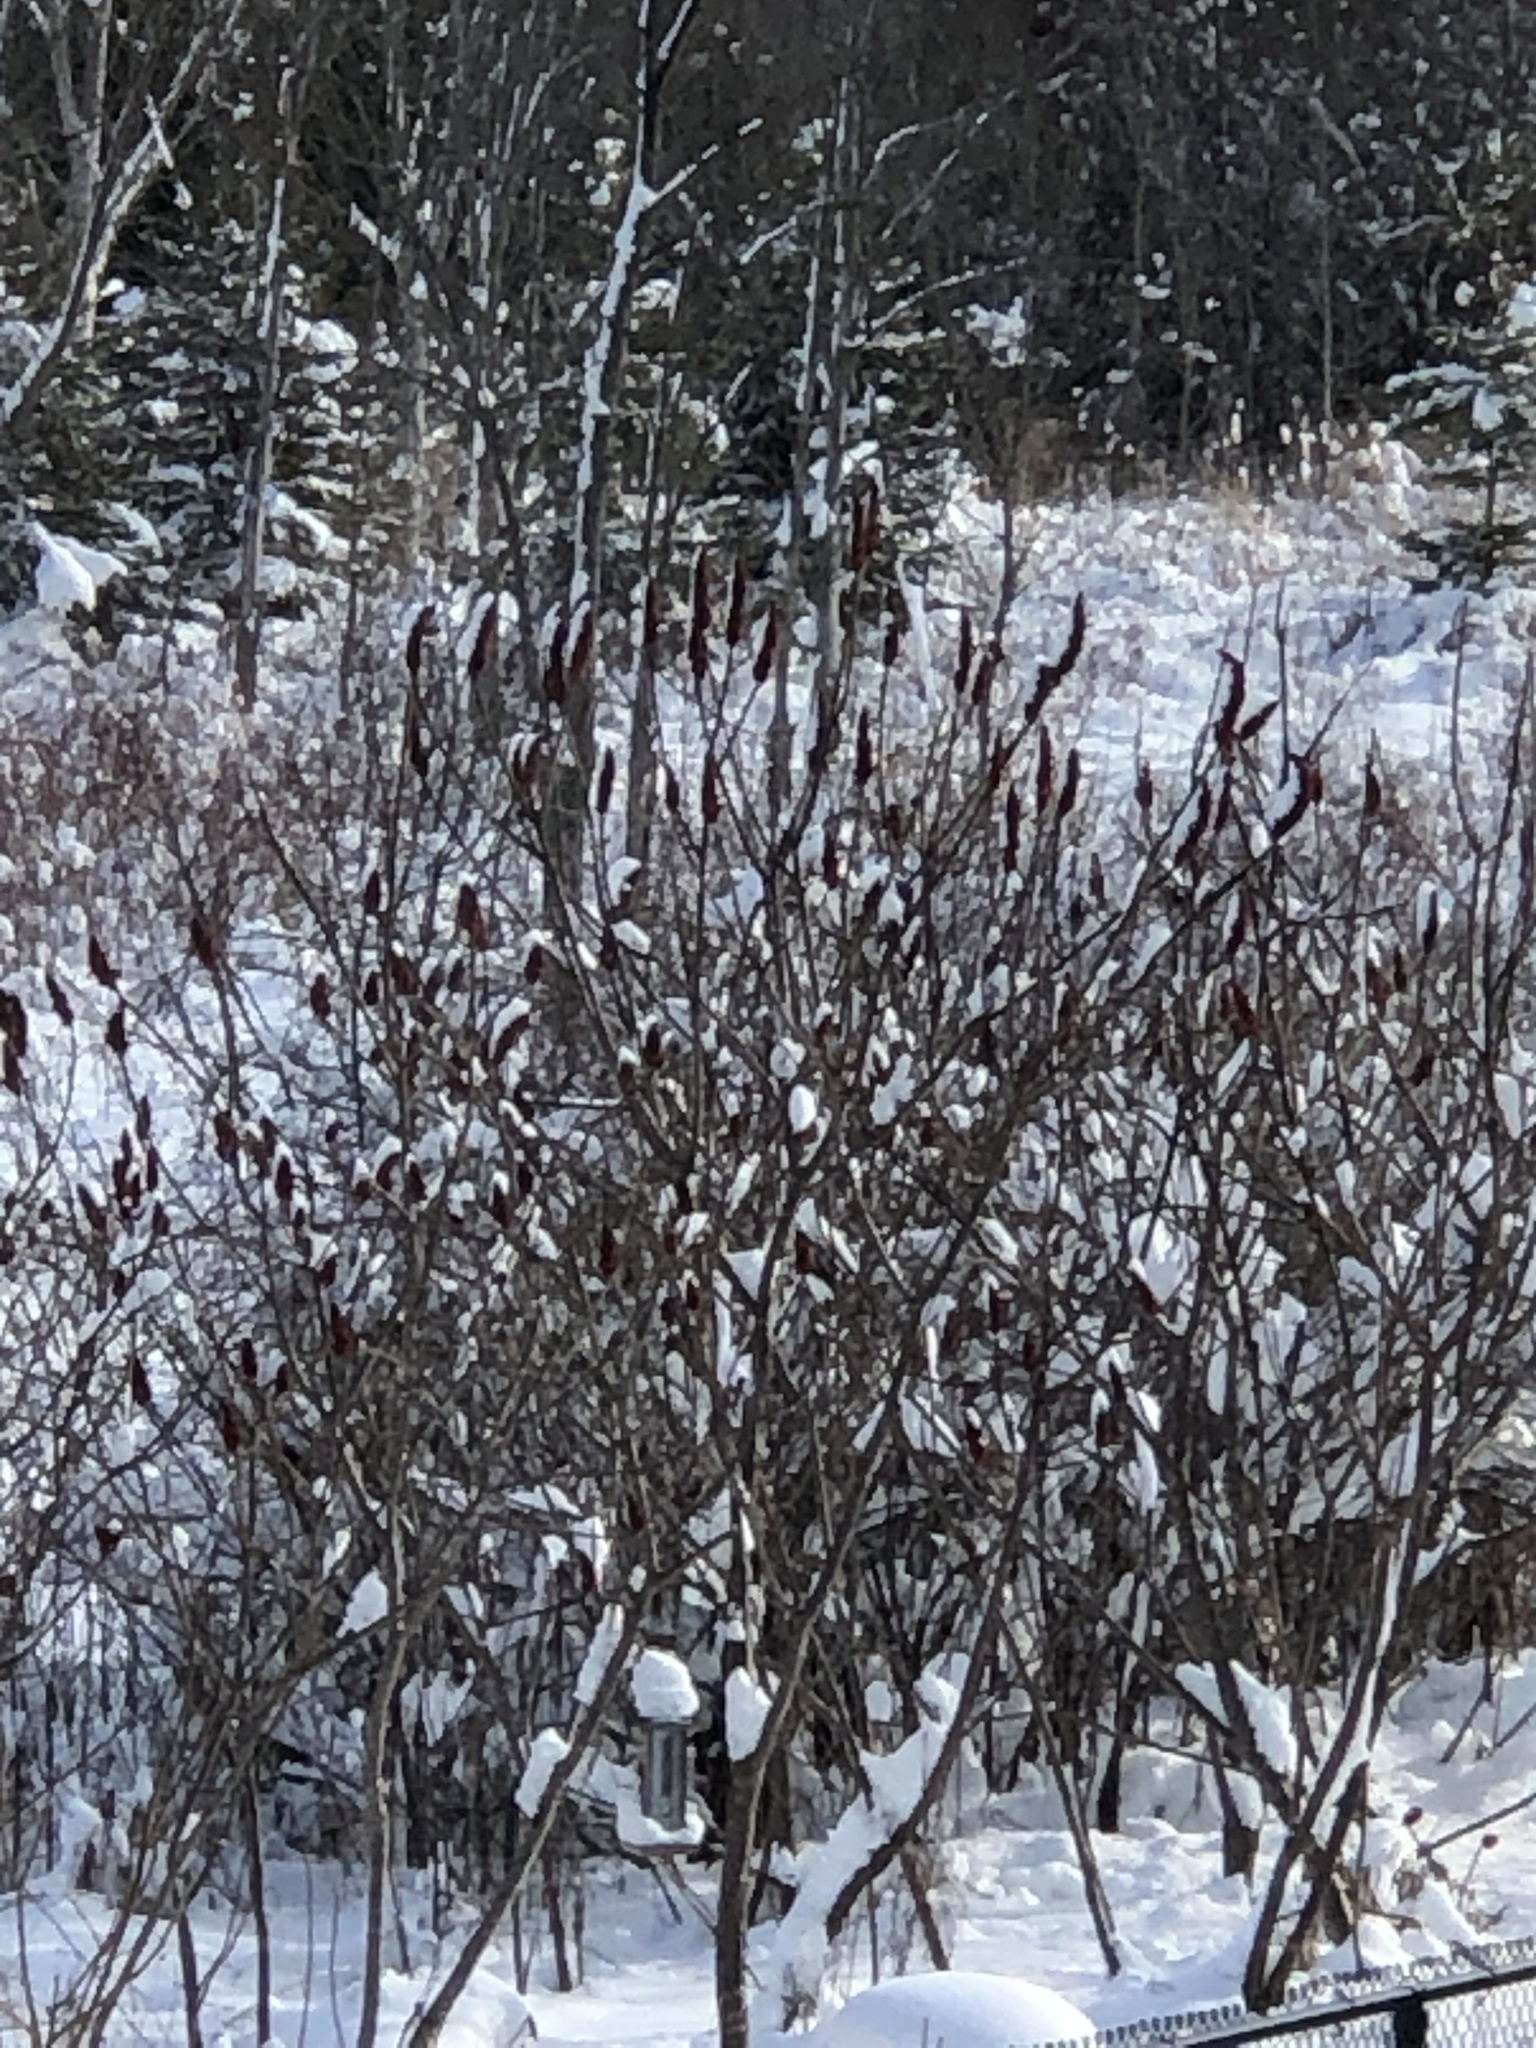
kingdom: Plantae
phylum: Tracheophyta
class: Magnoliopsida
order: Sapindales
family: Anacardiaceae
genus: Rhus
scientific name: Rhus typhina
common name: Staghorn sumac
